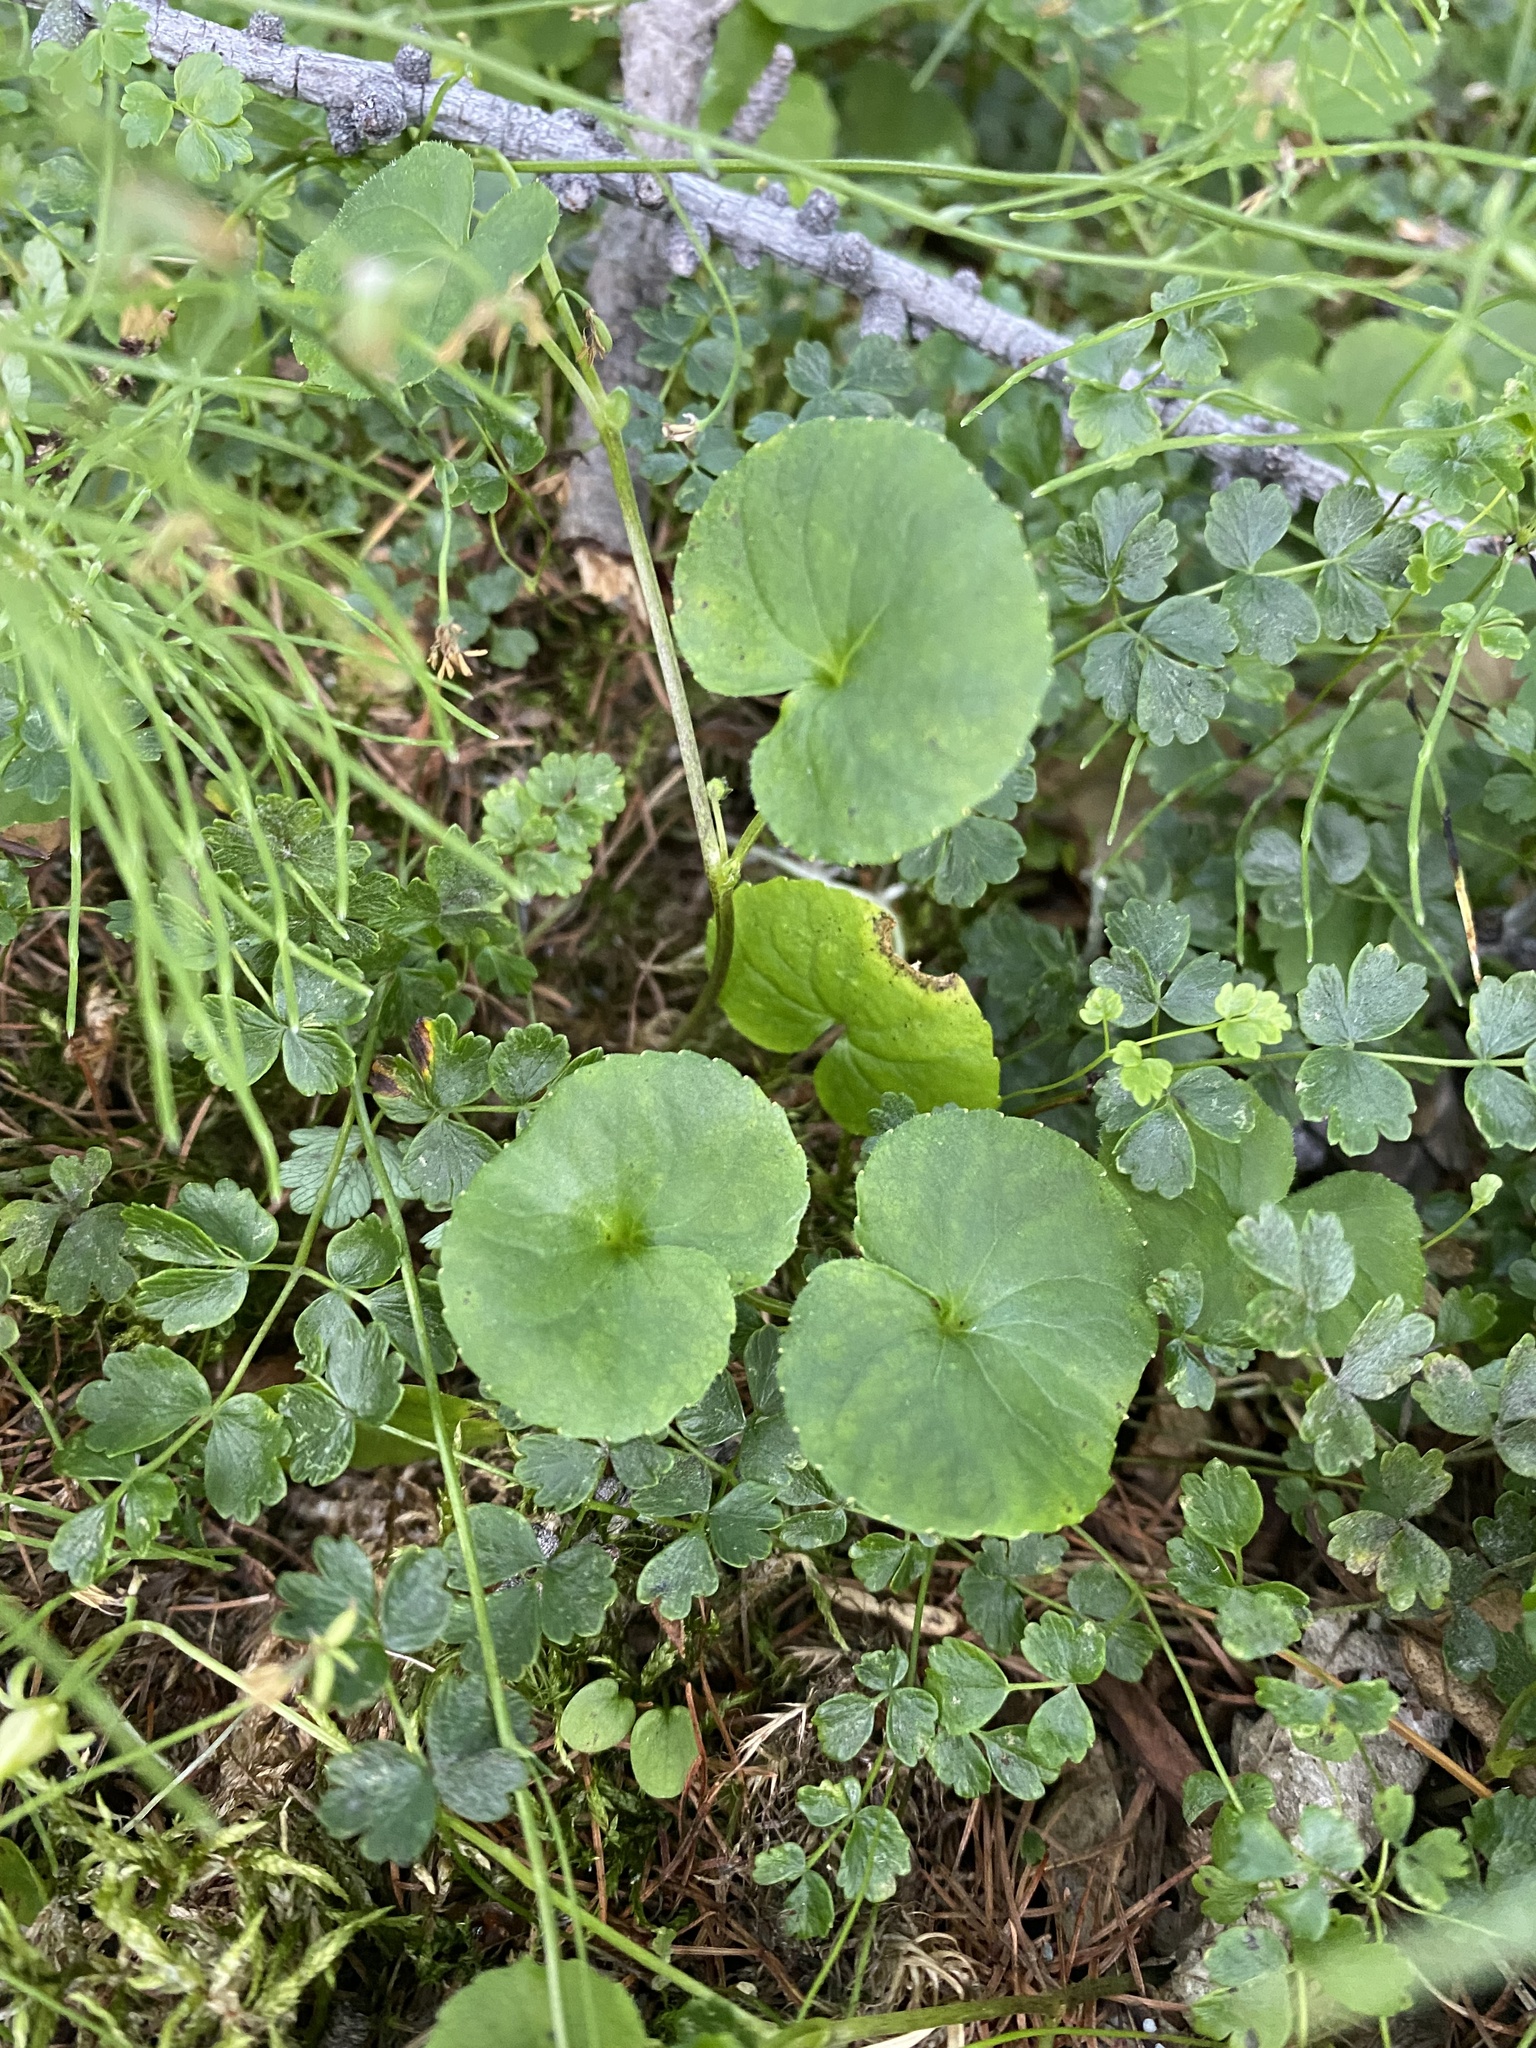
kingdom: Plantae
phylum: Tracheophyta
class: Magnoliopsida
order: Malpighiales
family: Violaceae
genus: Viola
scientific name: Viola biflora
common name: Alpine yellow violet
